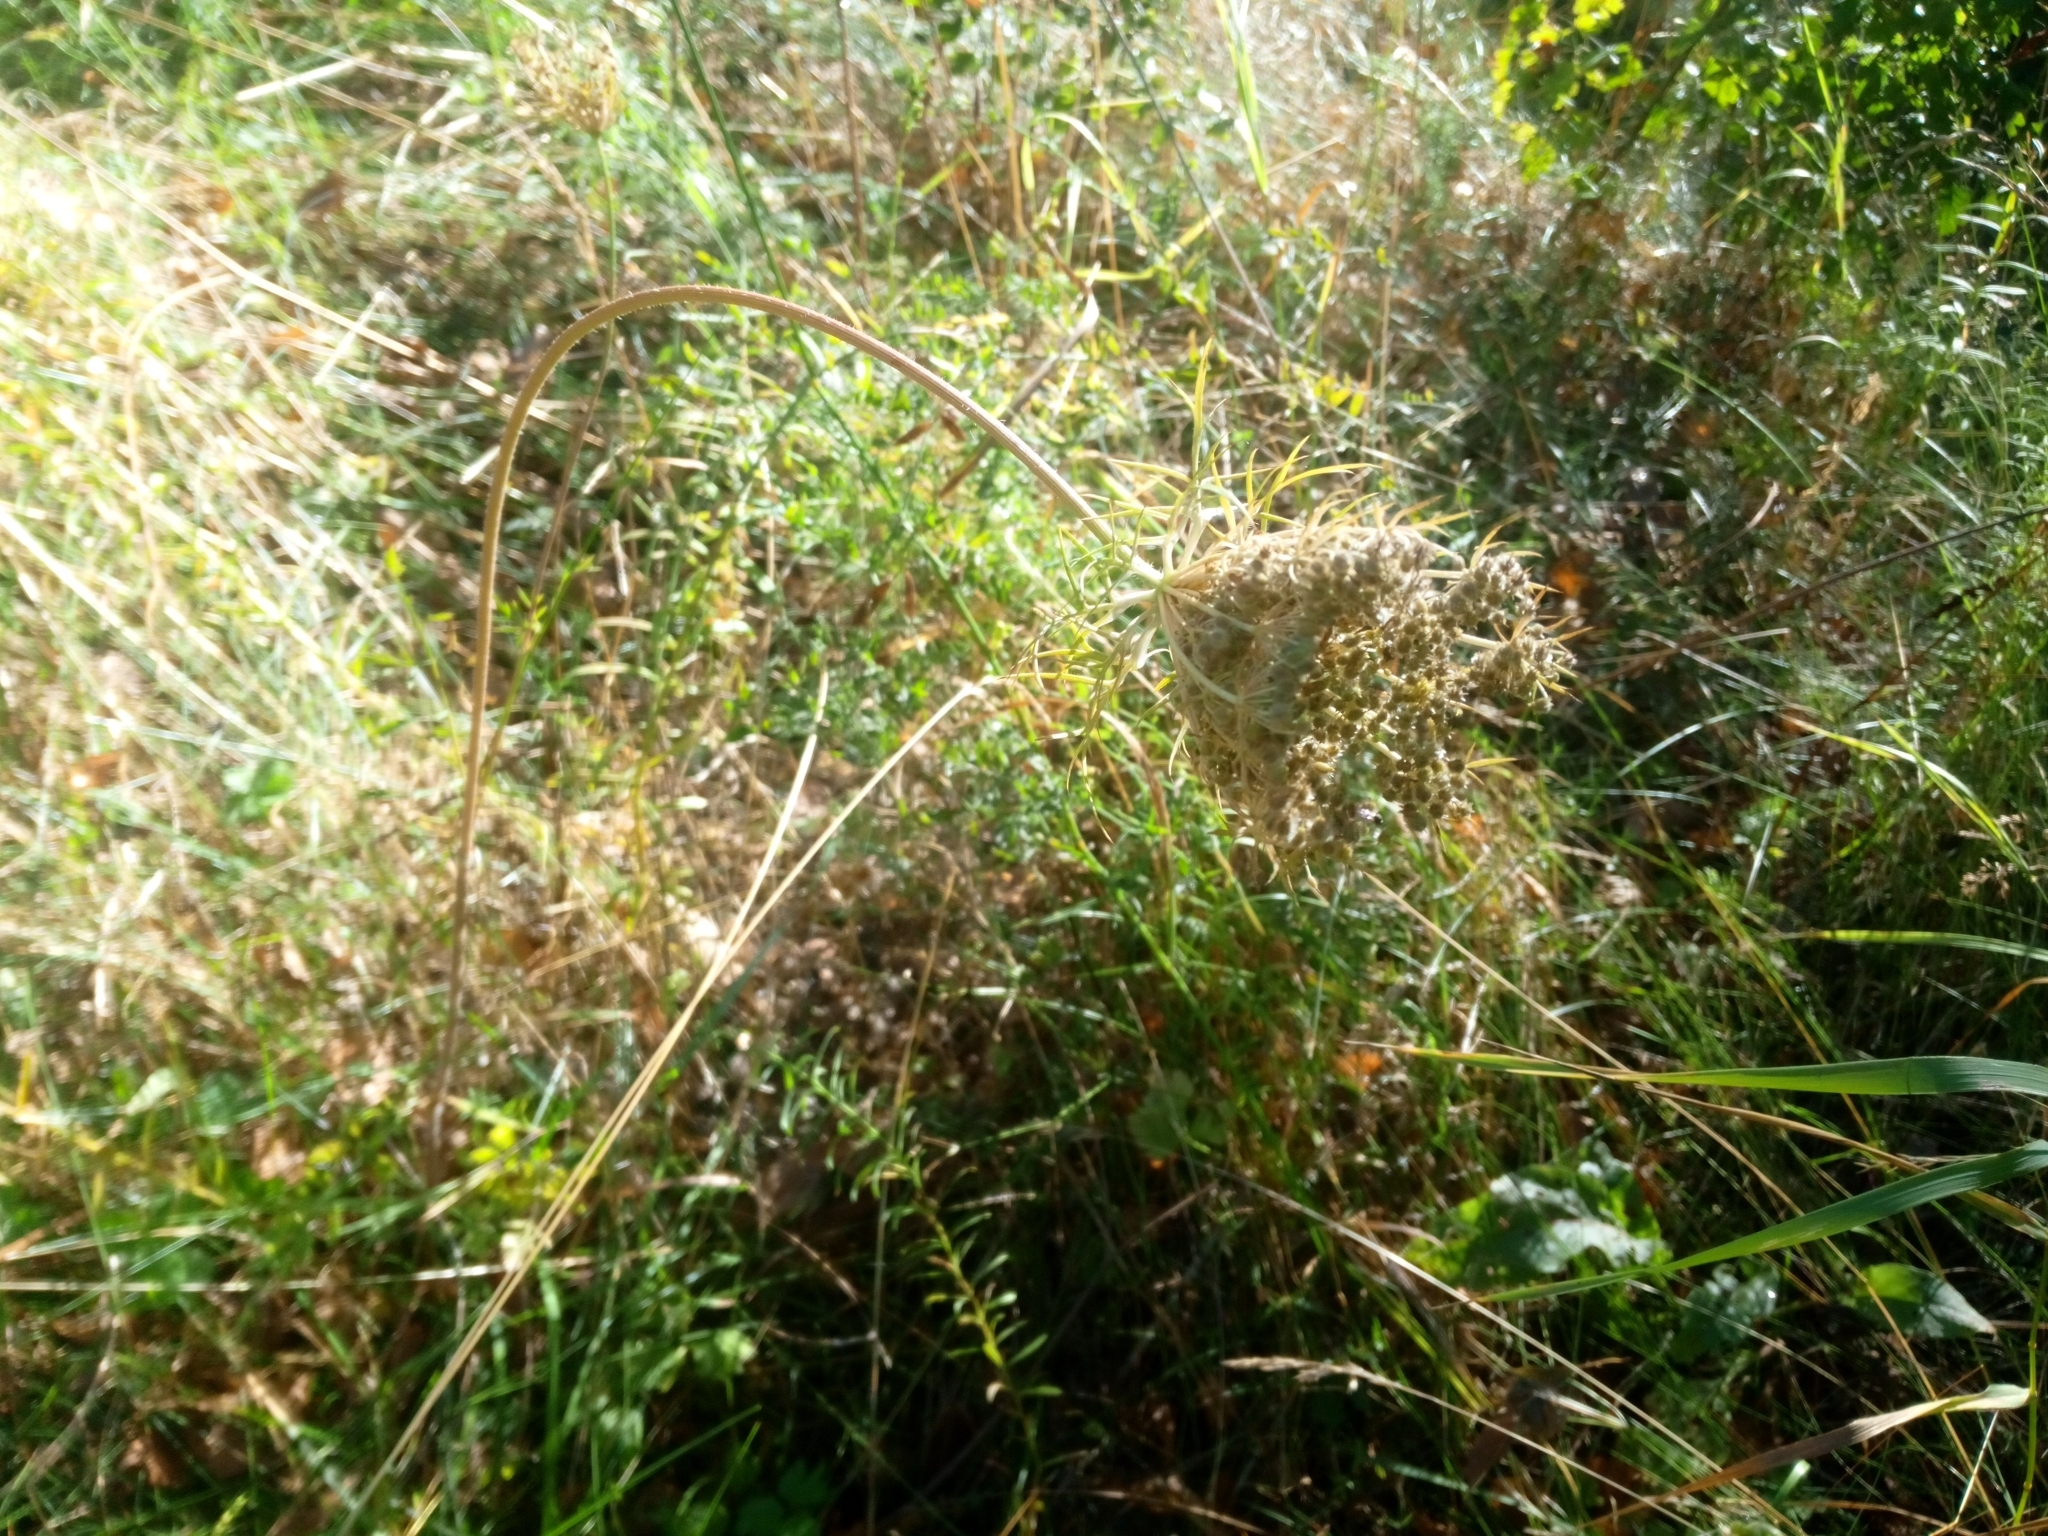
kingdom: Plantae
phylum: Tracheophyta
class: Magnoliopsida
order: Apiales
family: Apiaceae
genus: Daucus
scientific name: Daucus carota
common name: Wild carrot
